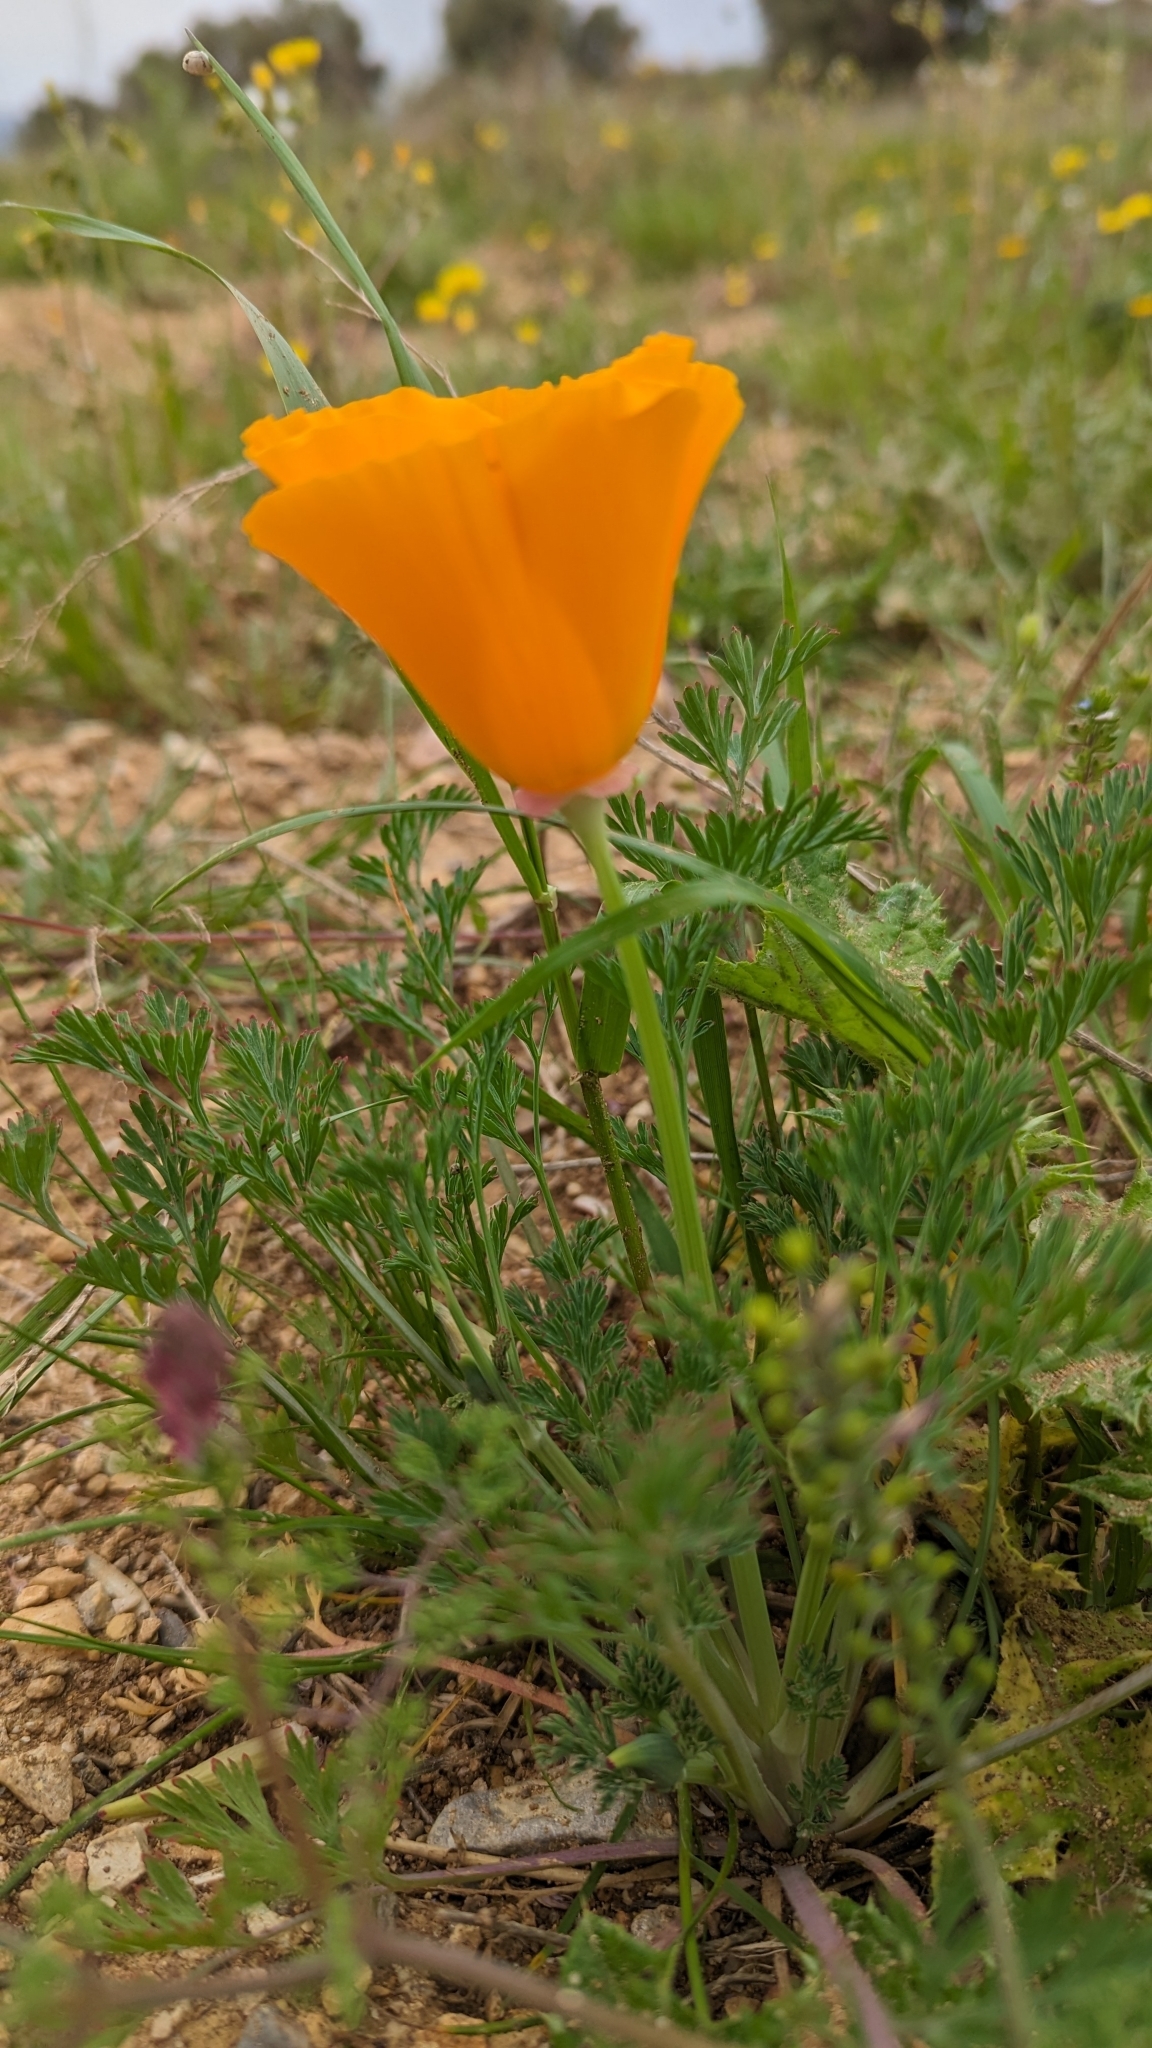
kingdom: Plantae
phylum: Tracheophyta
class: Magnoliopsida
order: Ranunculales
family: Papaveraceae
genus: Eschscholzia
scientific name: Eschscholzia californica
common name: California poppy
